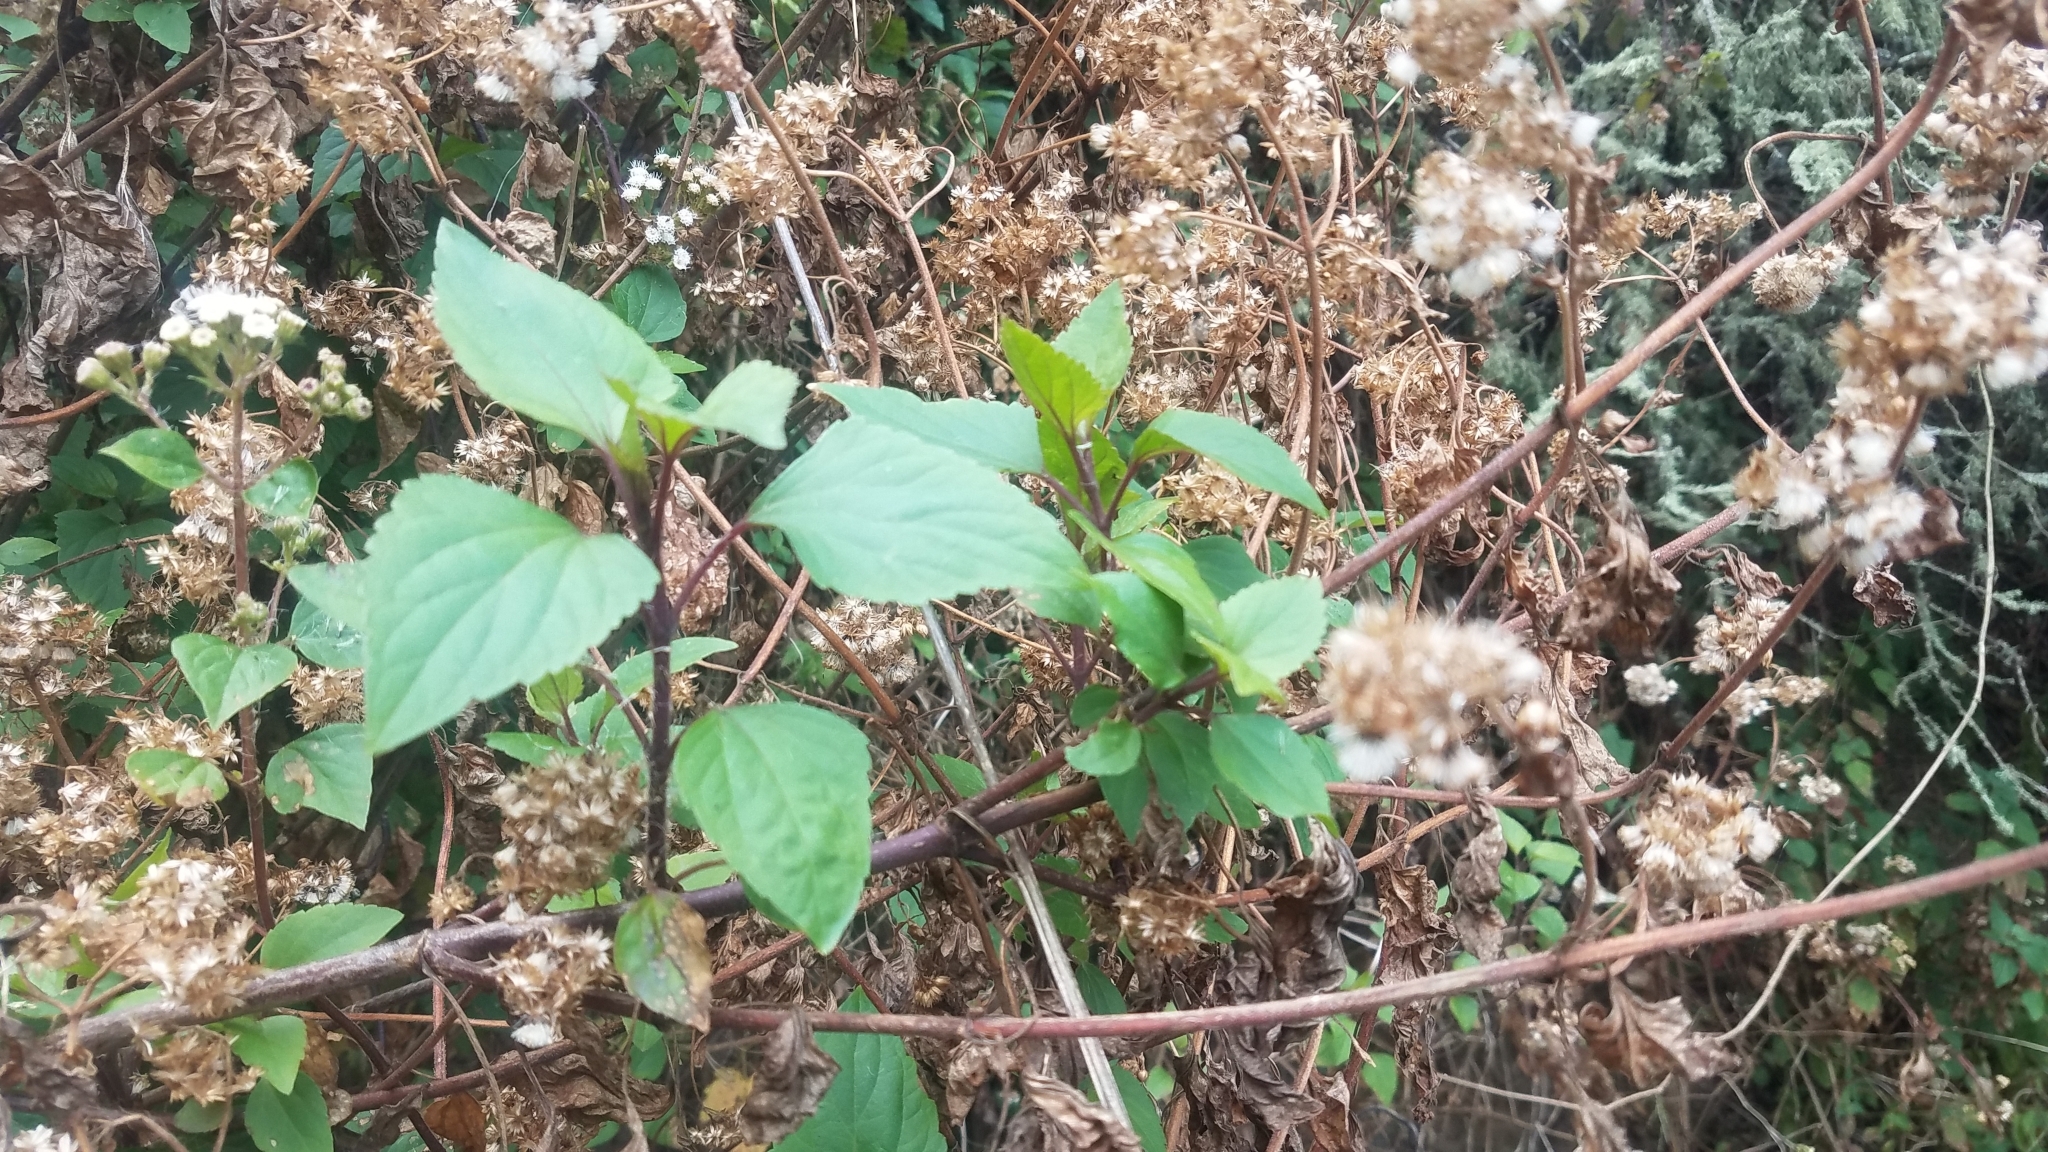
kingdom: Plantae
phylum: Tracheophyta
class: Magnoliopsida
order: Asterales
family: Asteraceae
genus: Ageratina
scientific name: Ageratina adenophora
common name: Sticky snakeroot
